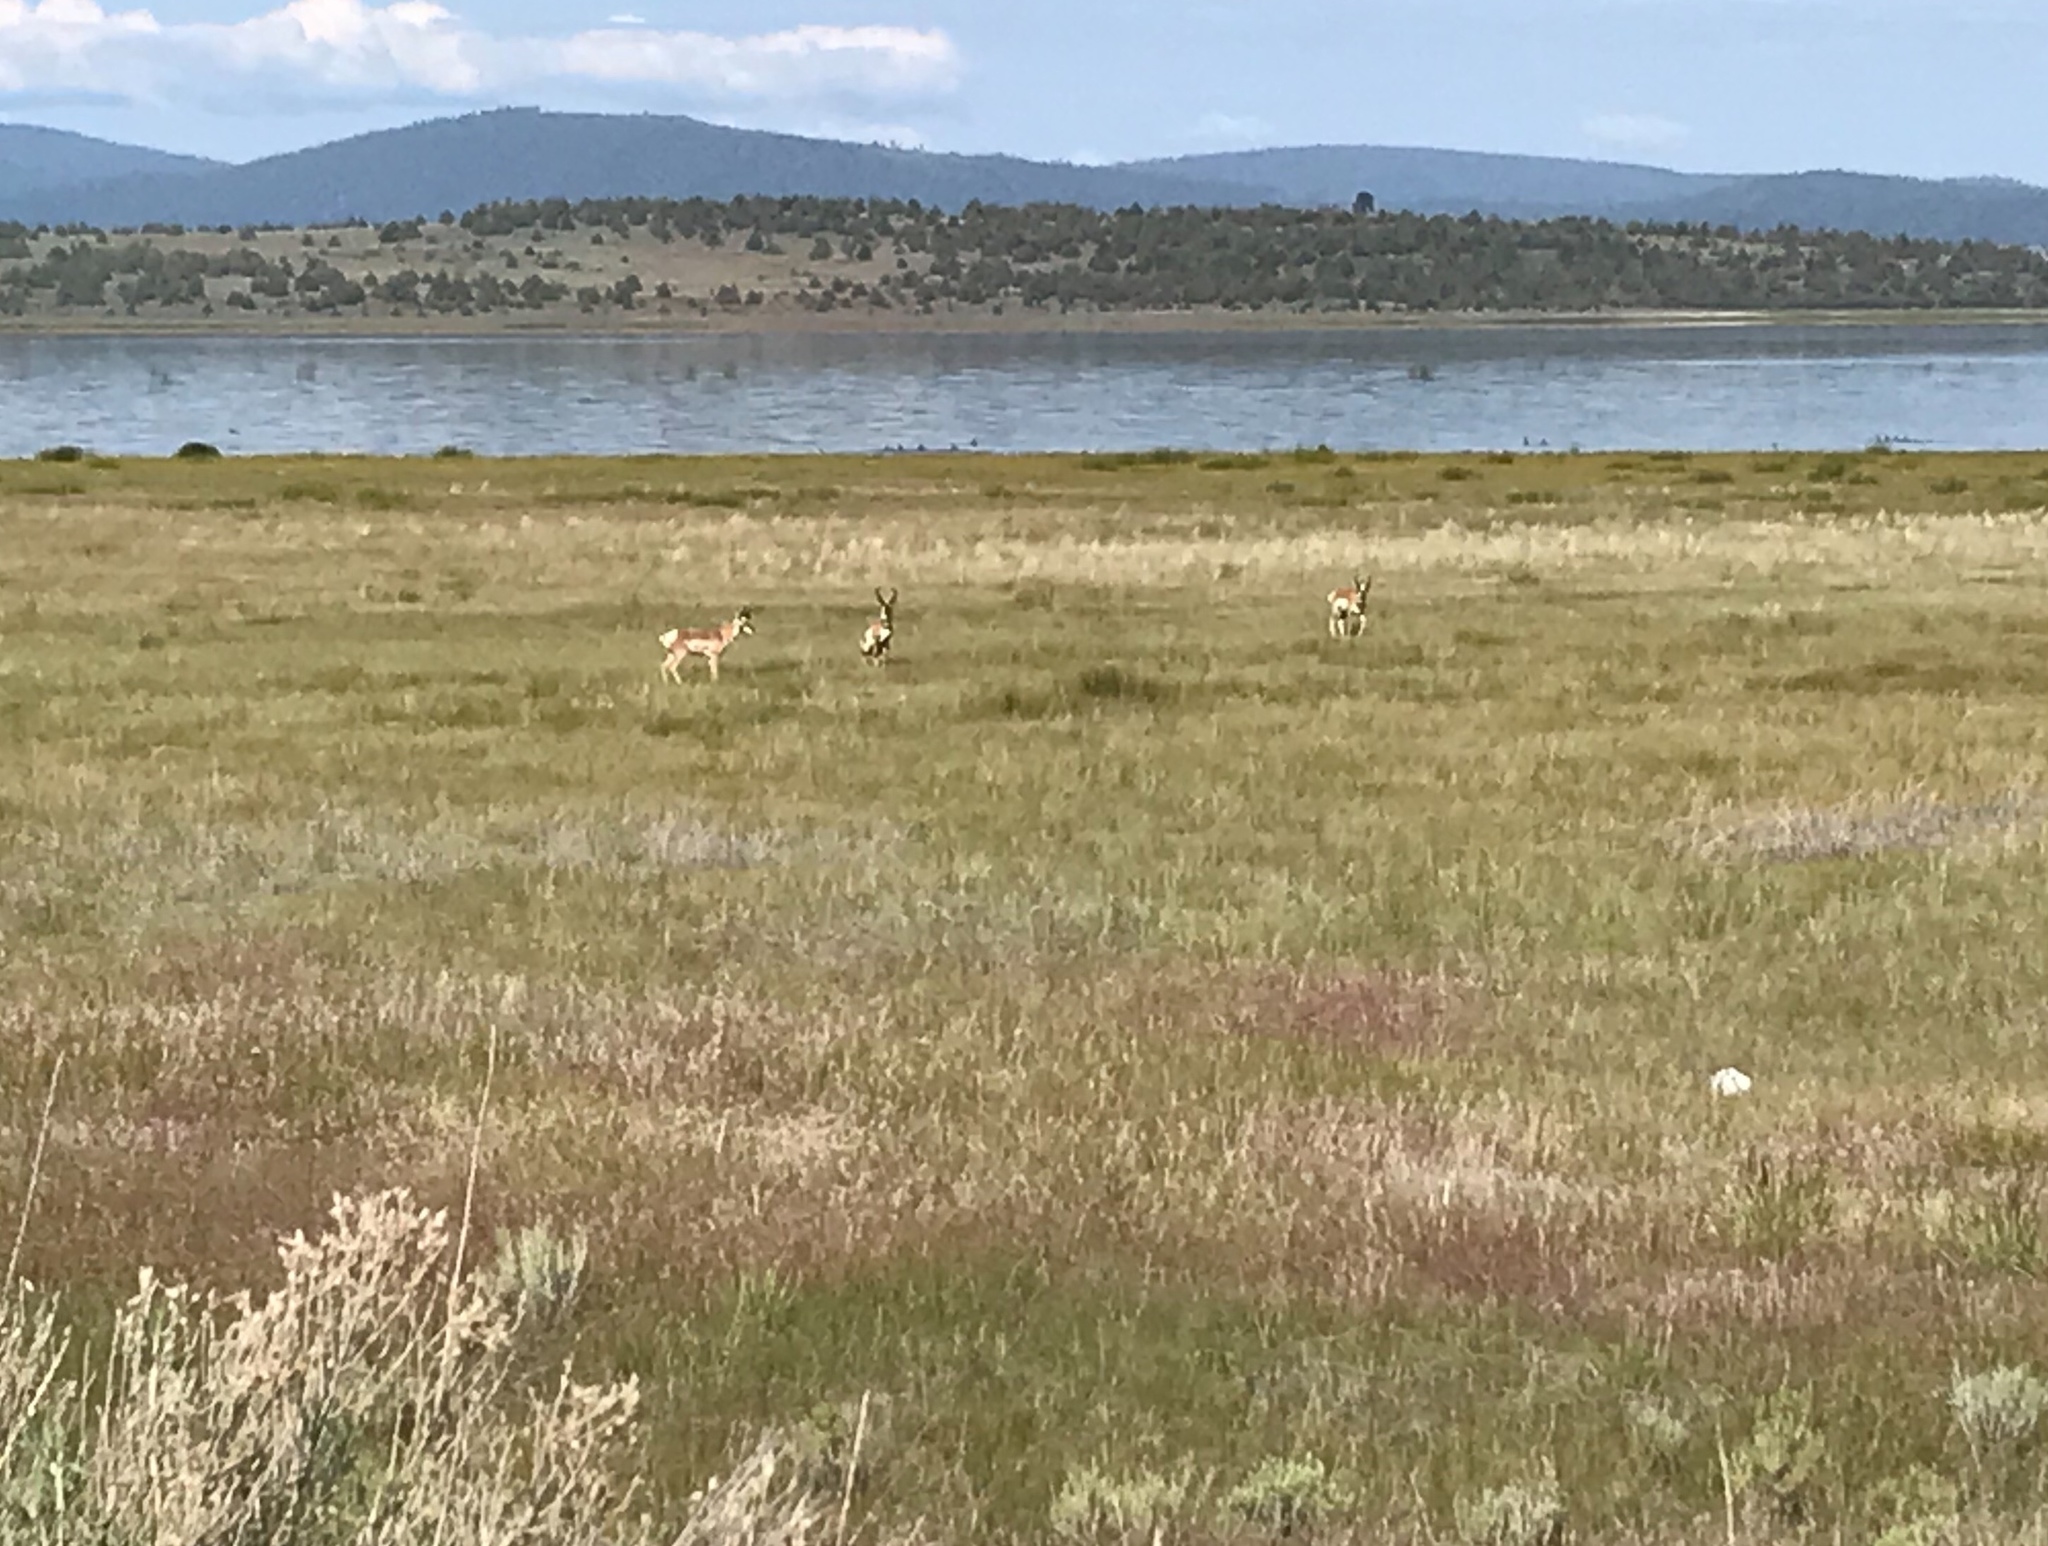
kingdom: Animalia
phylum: Chordata
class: Mammalia
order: Artiodactyla
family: Antilocapridae
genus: Antilocapra
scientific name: Antilocapra americana
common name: Pronghorn
